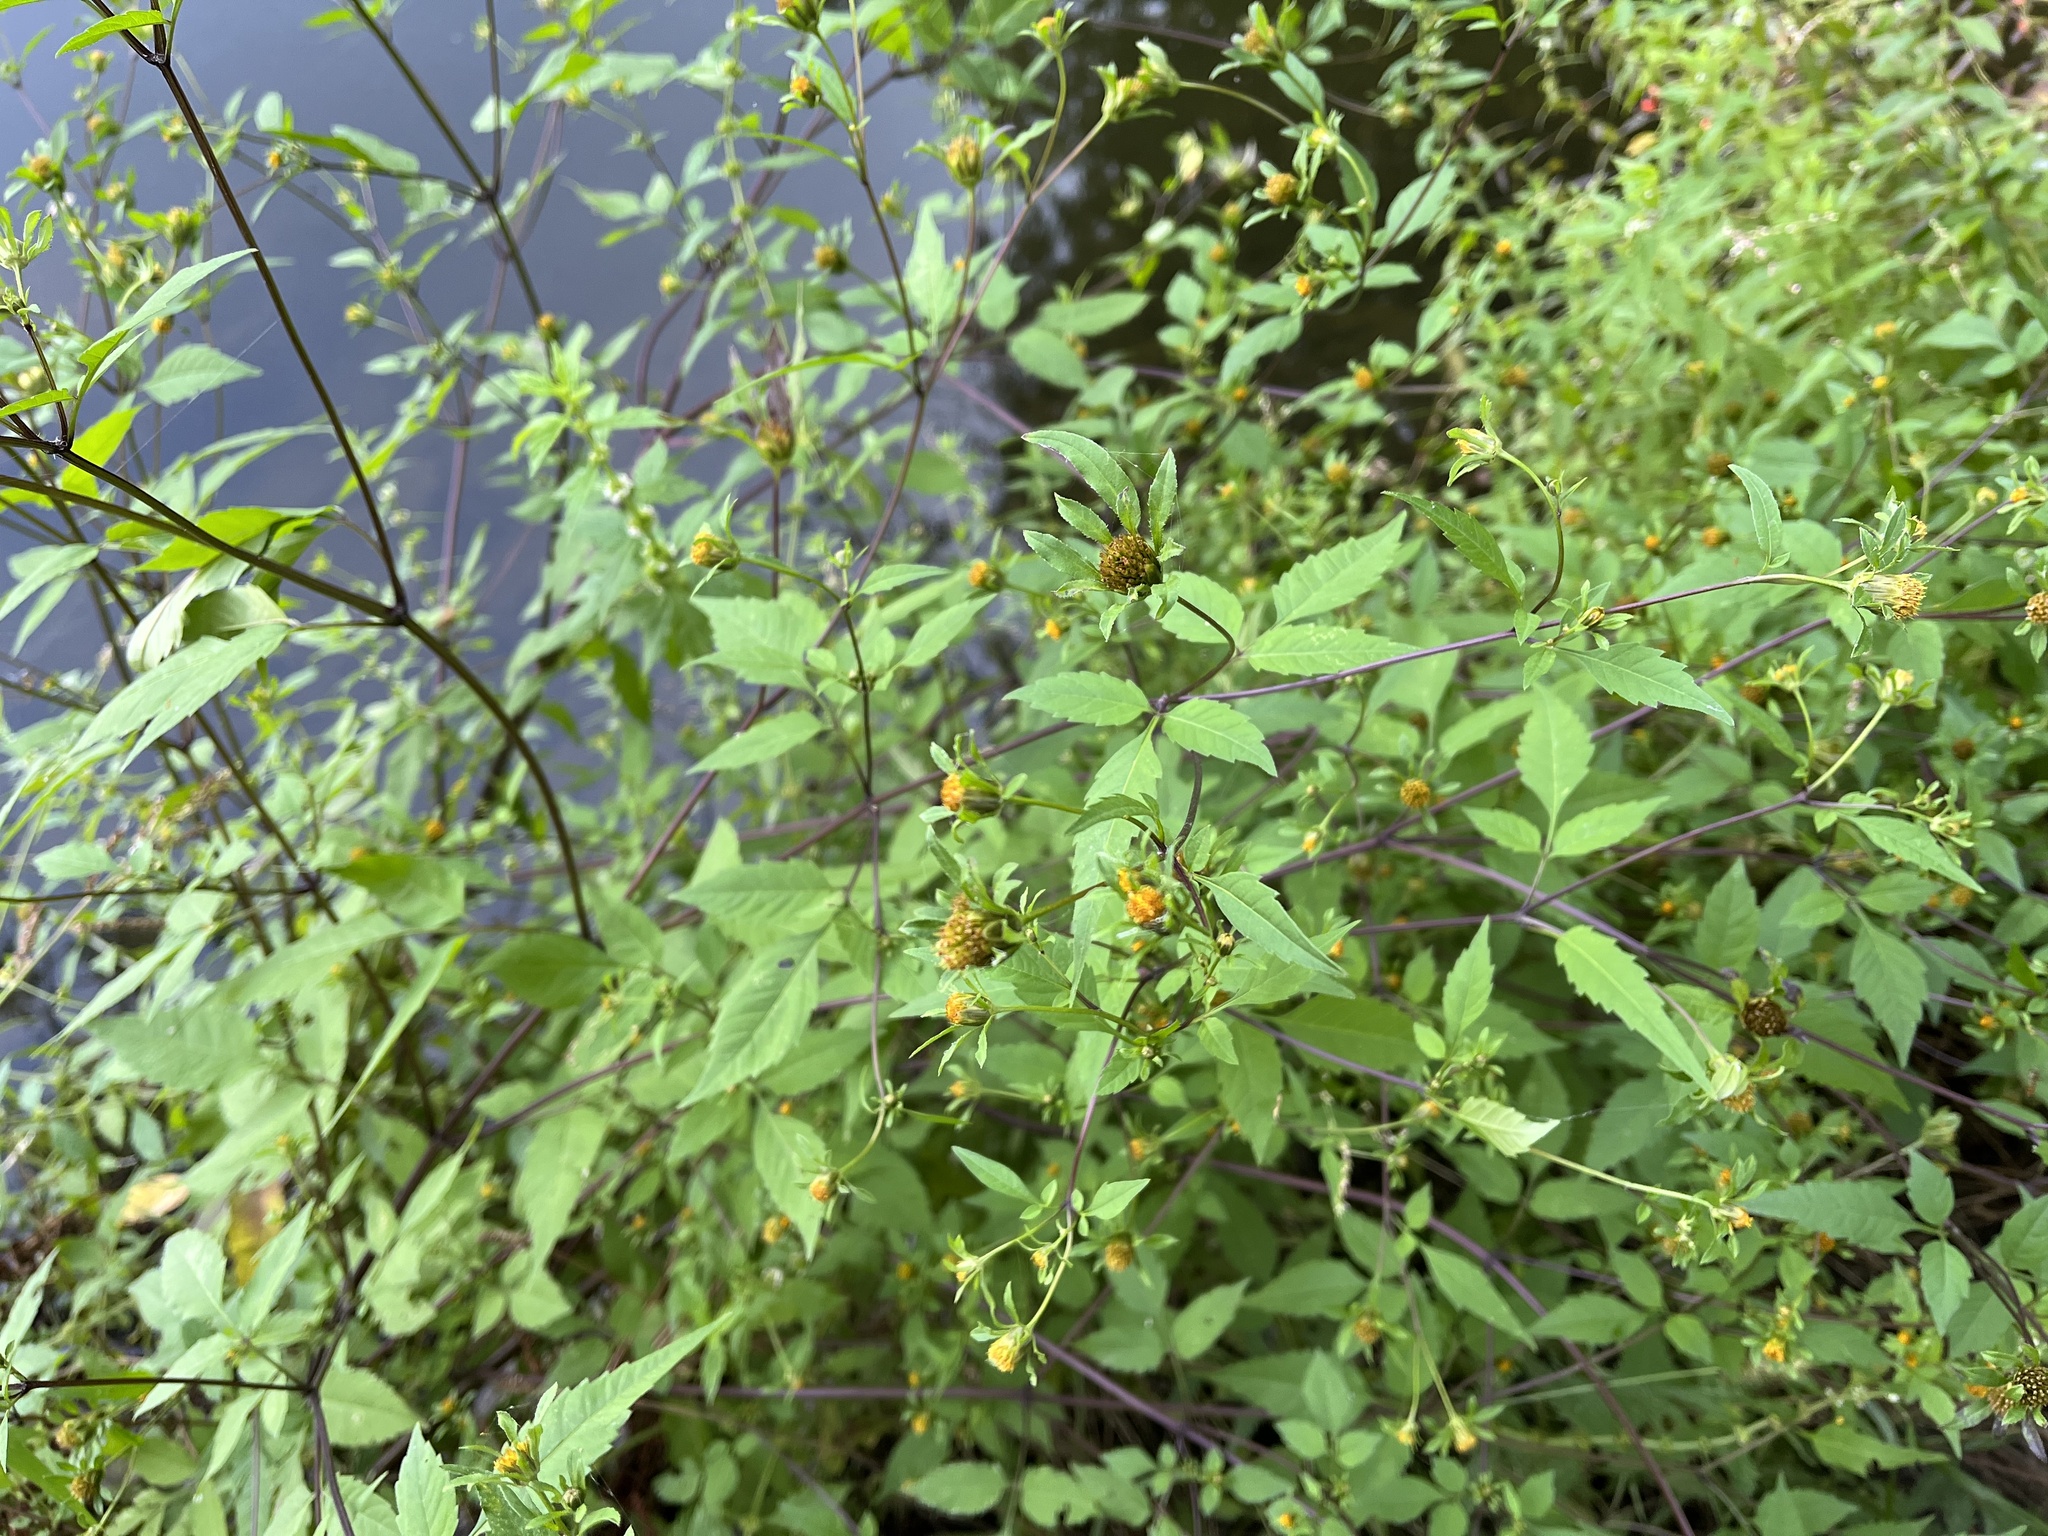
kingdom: Plantae
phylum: Tracheophyta
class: Magnoliopsida
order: Asterales
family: Asteraceae
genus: Bidens
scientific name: Bidens frondosa
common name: Beggarticks
